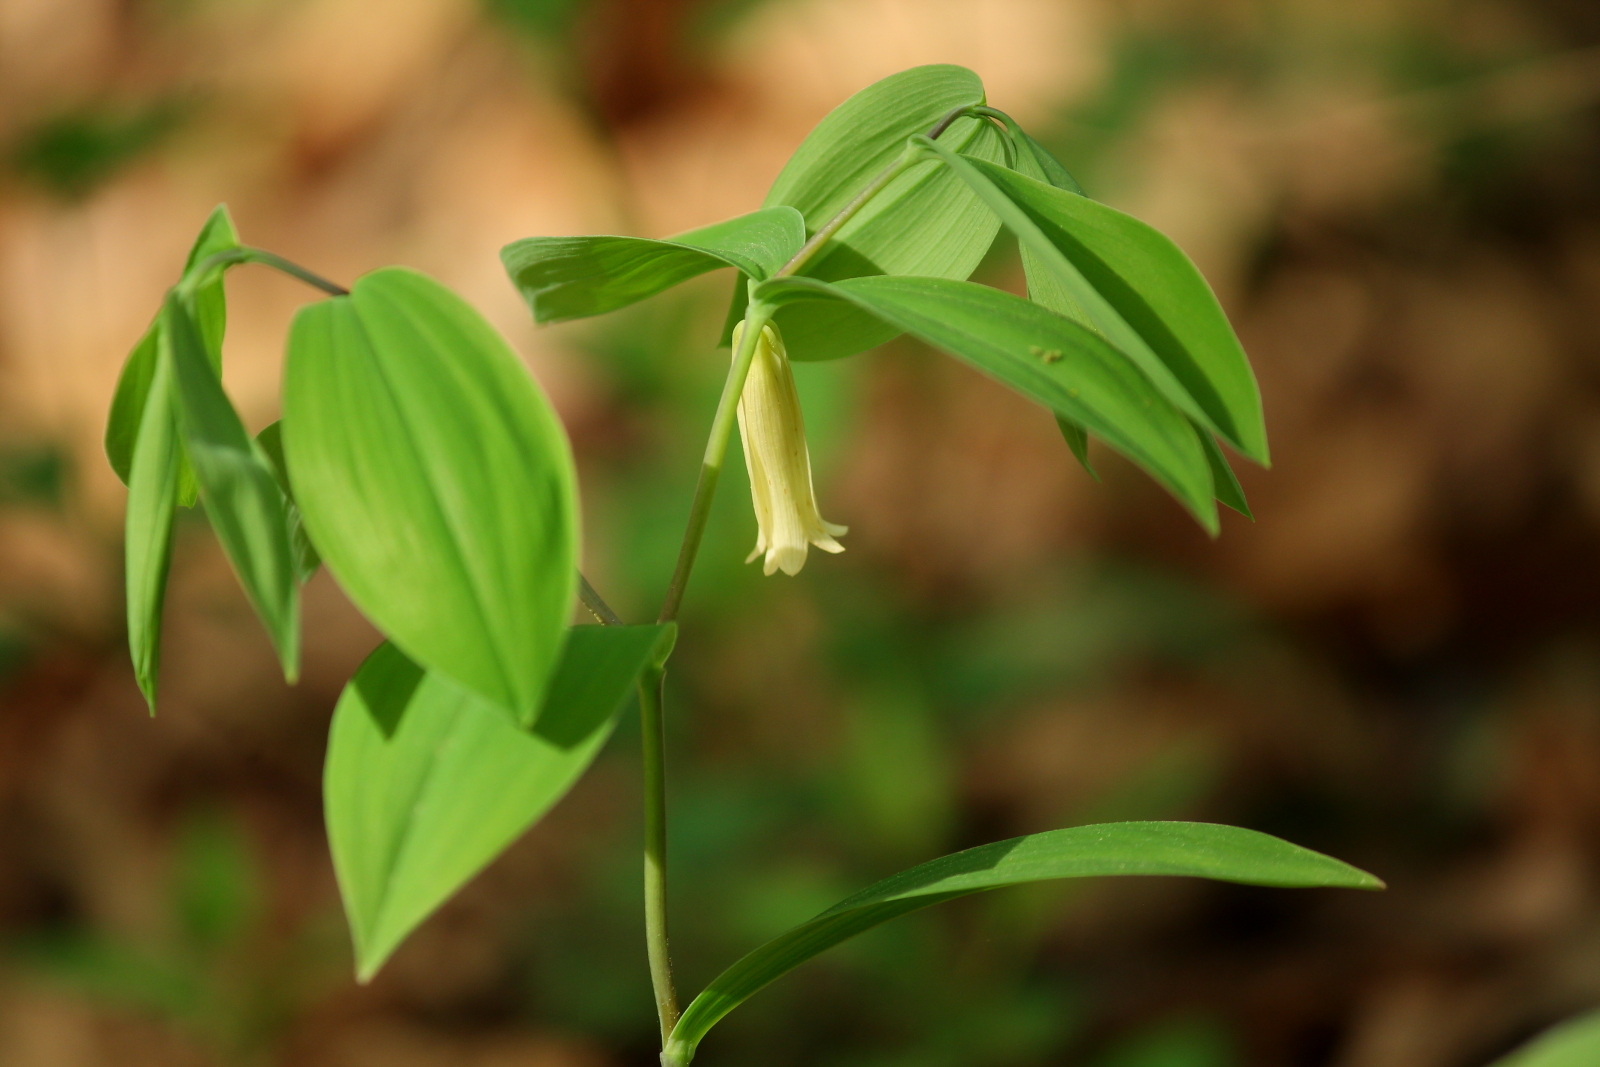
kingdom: Plantae
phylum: Tracheophyta
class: Liliopsida
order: Liliales
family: Colchicaceae
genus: Uvularia
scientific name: Uvularia sessilifolia
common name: Straw-lily
